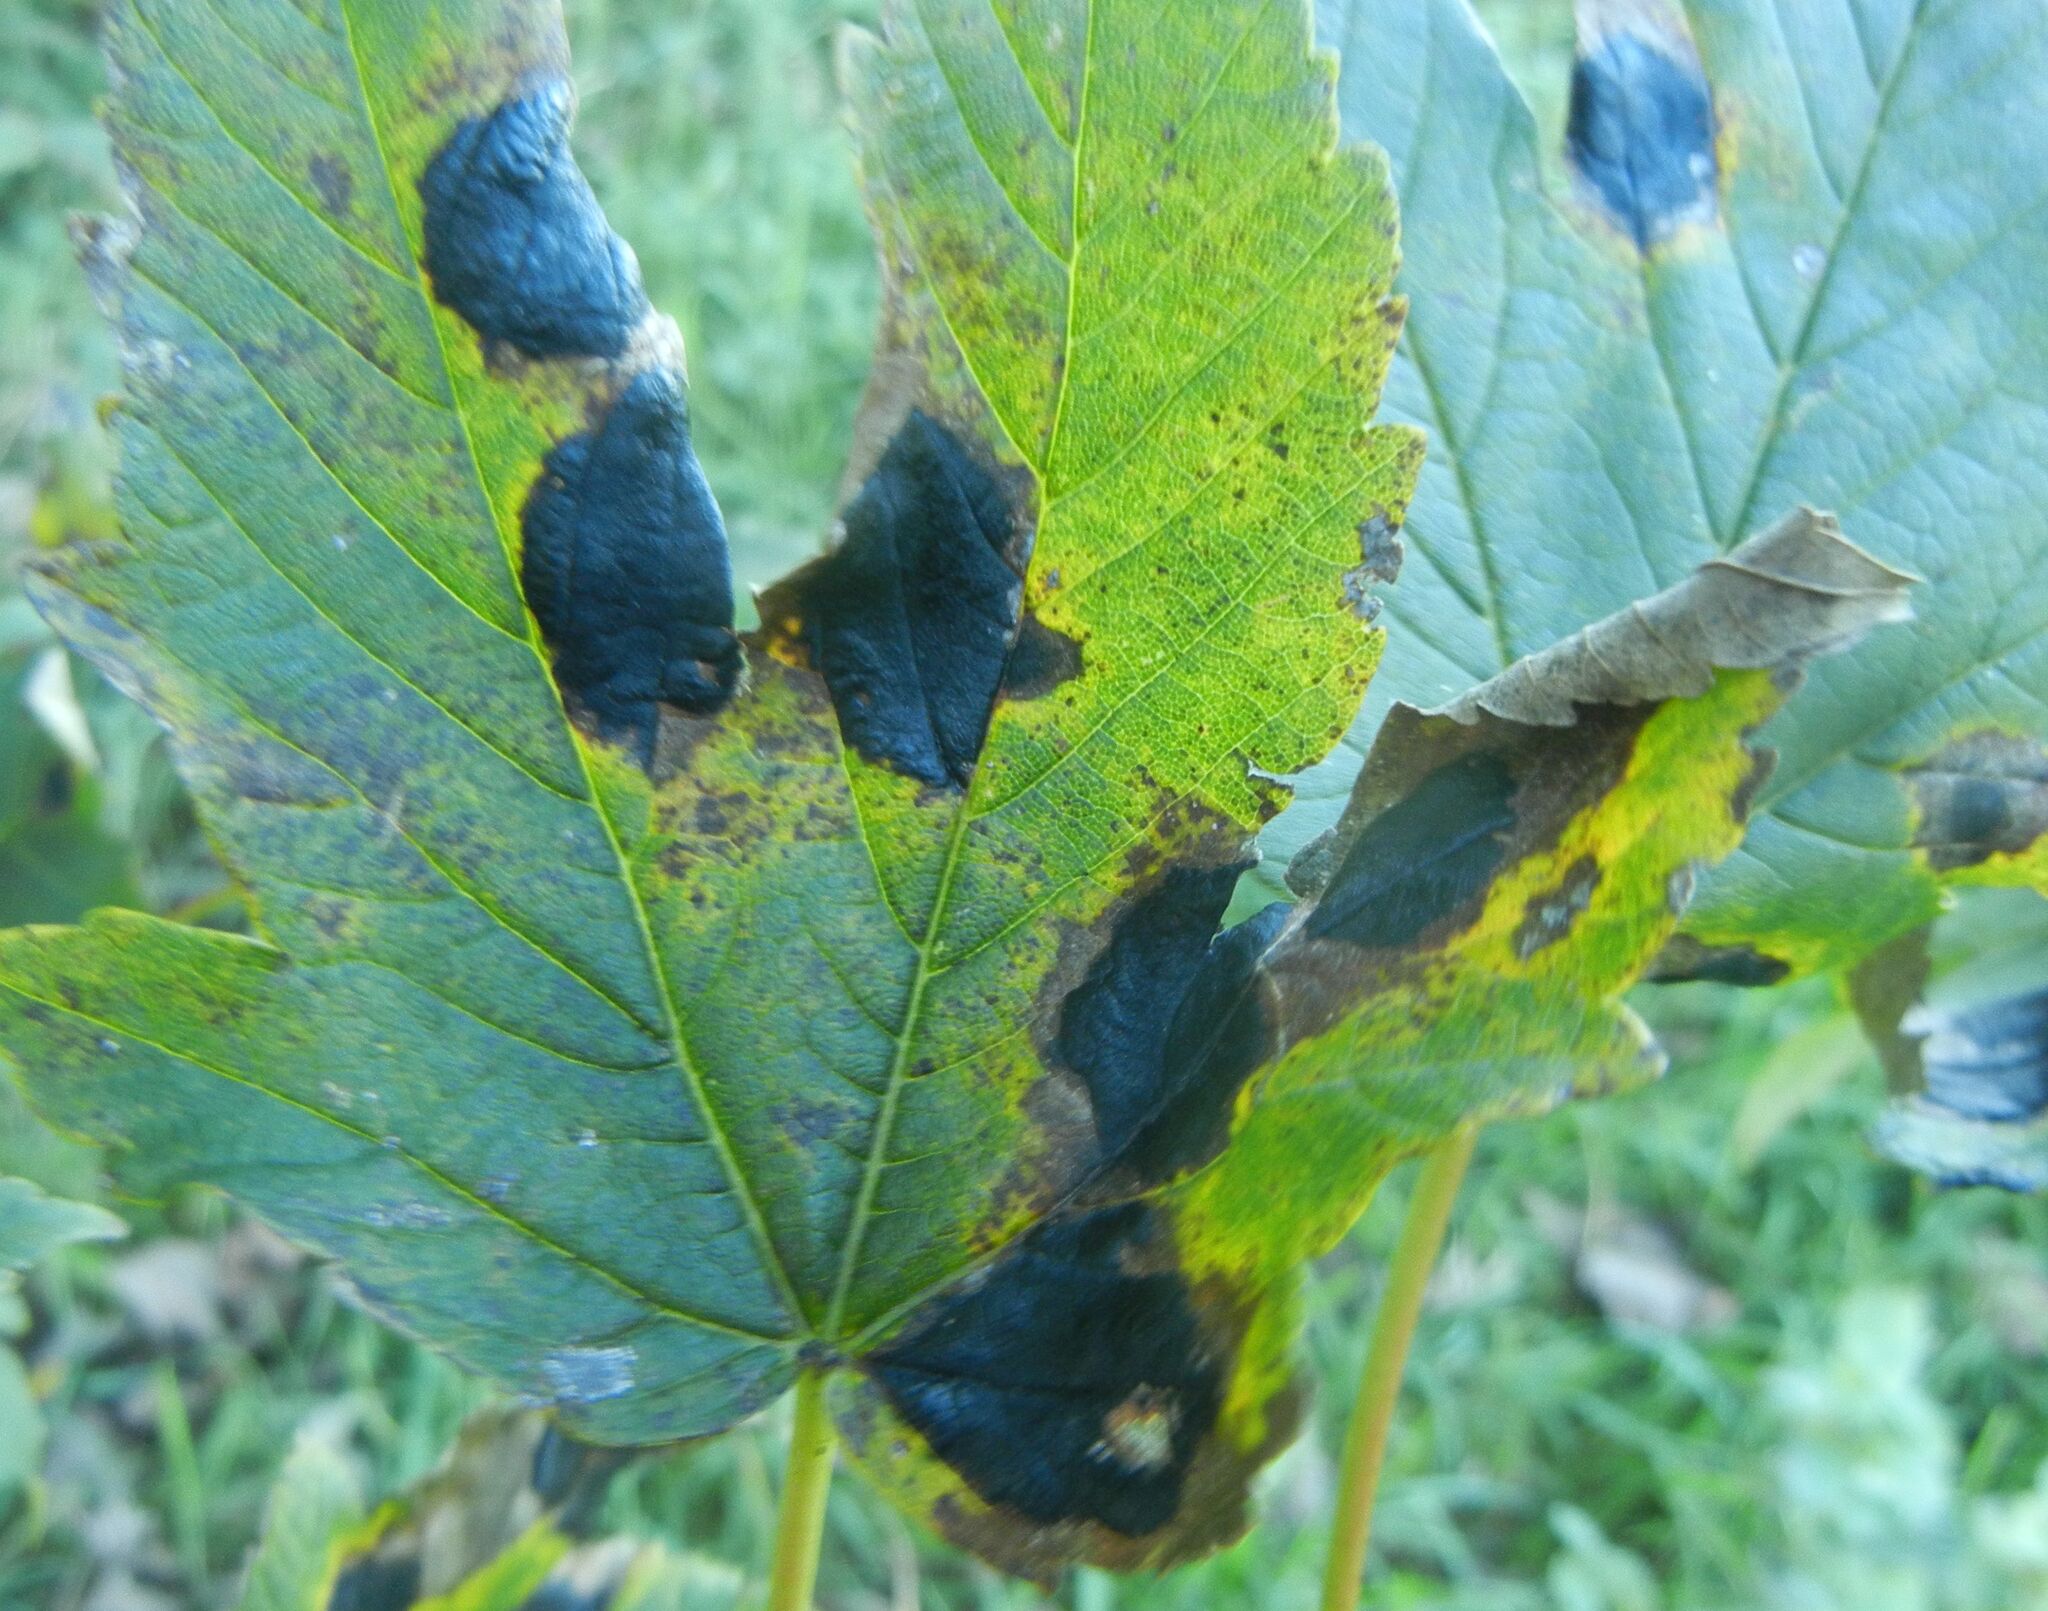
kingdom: Fungi
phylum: Ascomycota
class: Leotiomycetes
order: Rhytismatales
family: Rhytismataceae
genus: Rhytisma
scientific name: Rhytisma acerinum
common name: European tar spot
